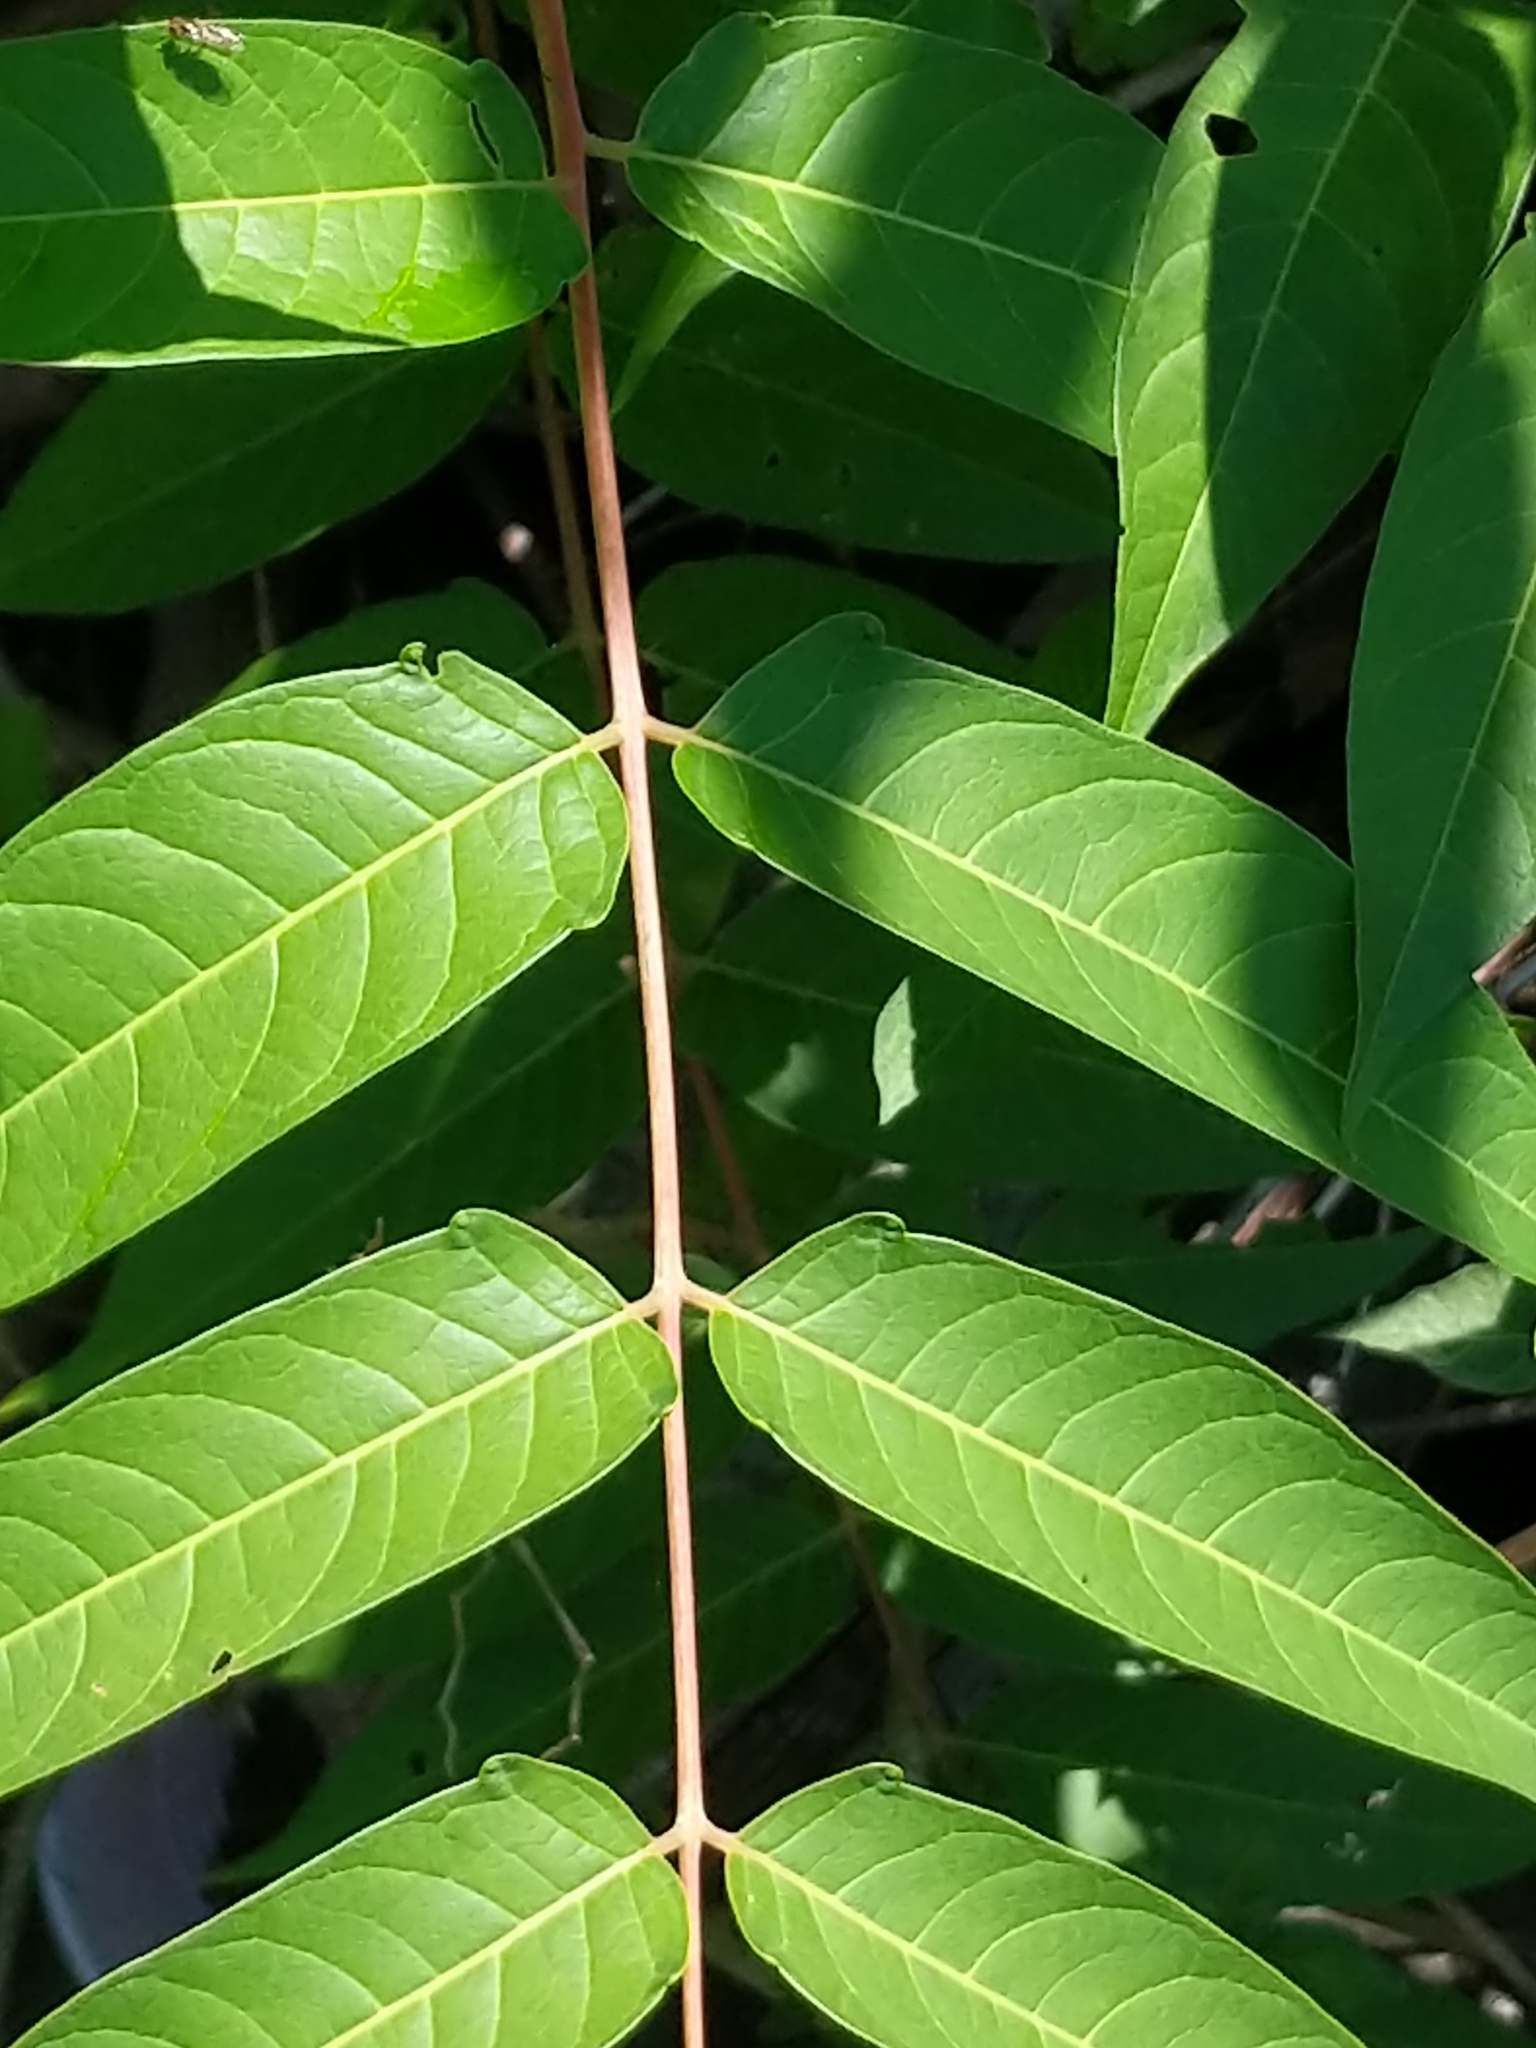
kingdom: Plantae
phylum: Tracheophyta
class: Magnoliopsida
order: Sapindales
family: Simaroubaceae
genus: Ailanthus
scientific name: Ailanthus altissima
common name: Tree-of-heaven
